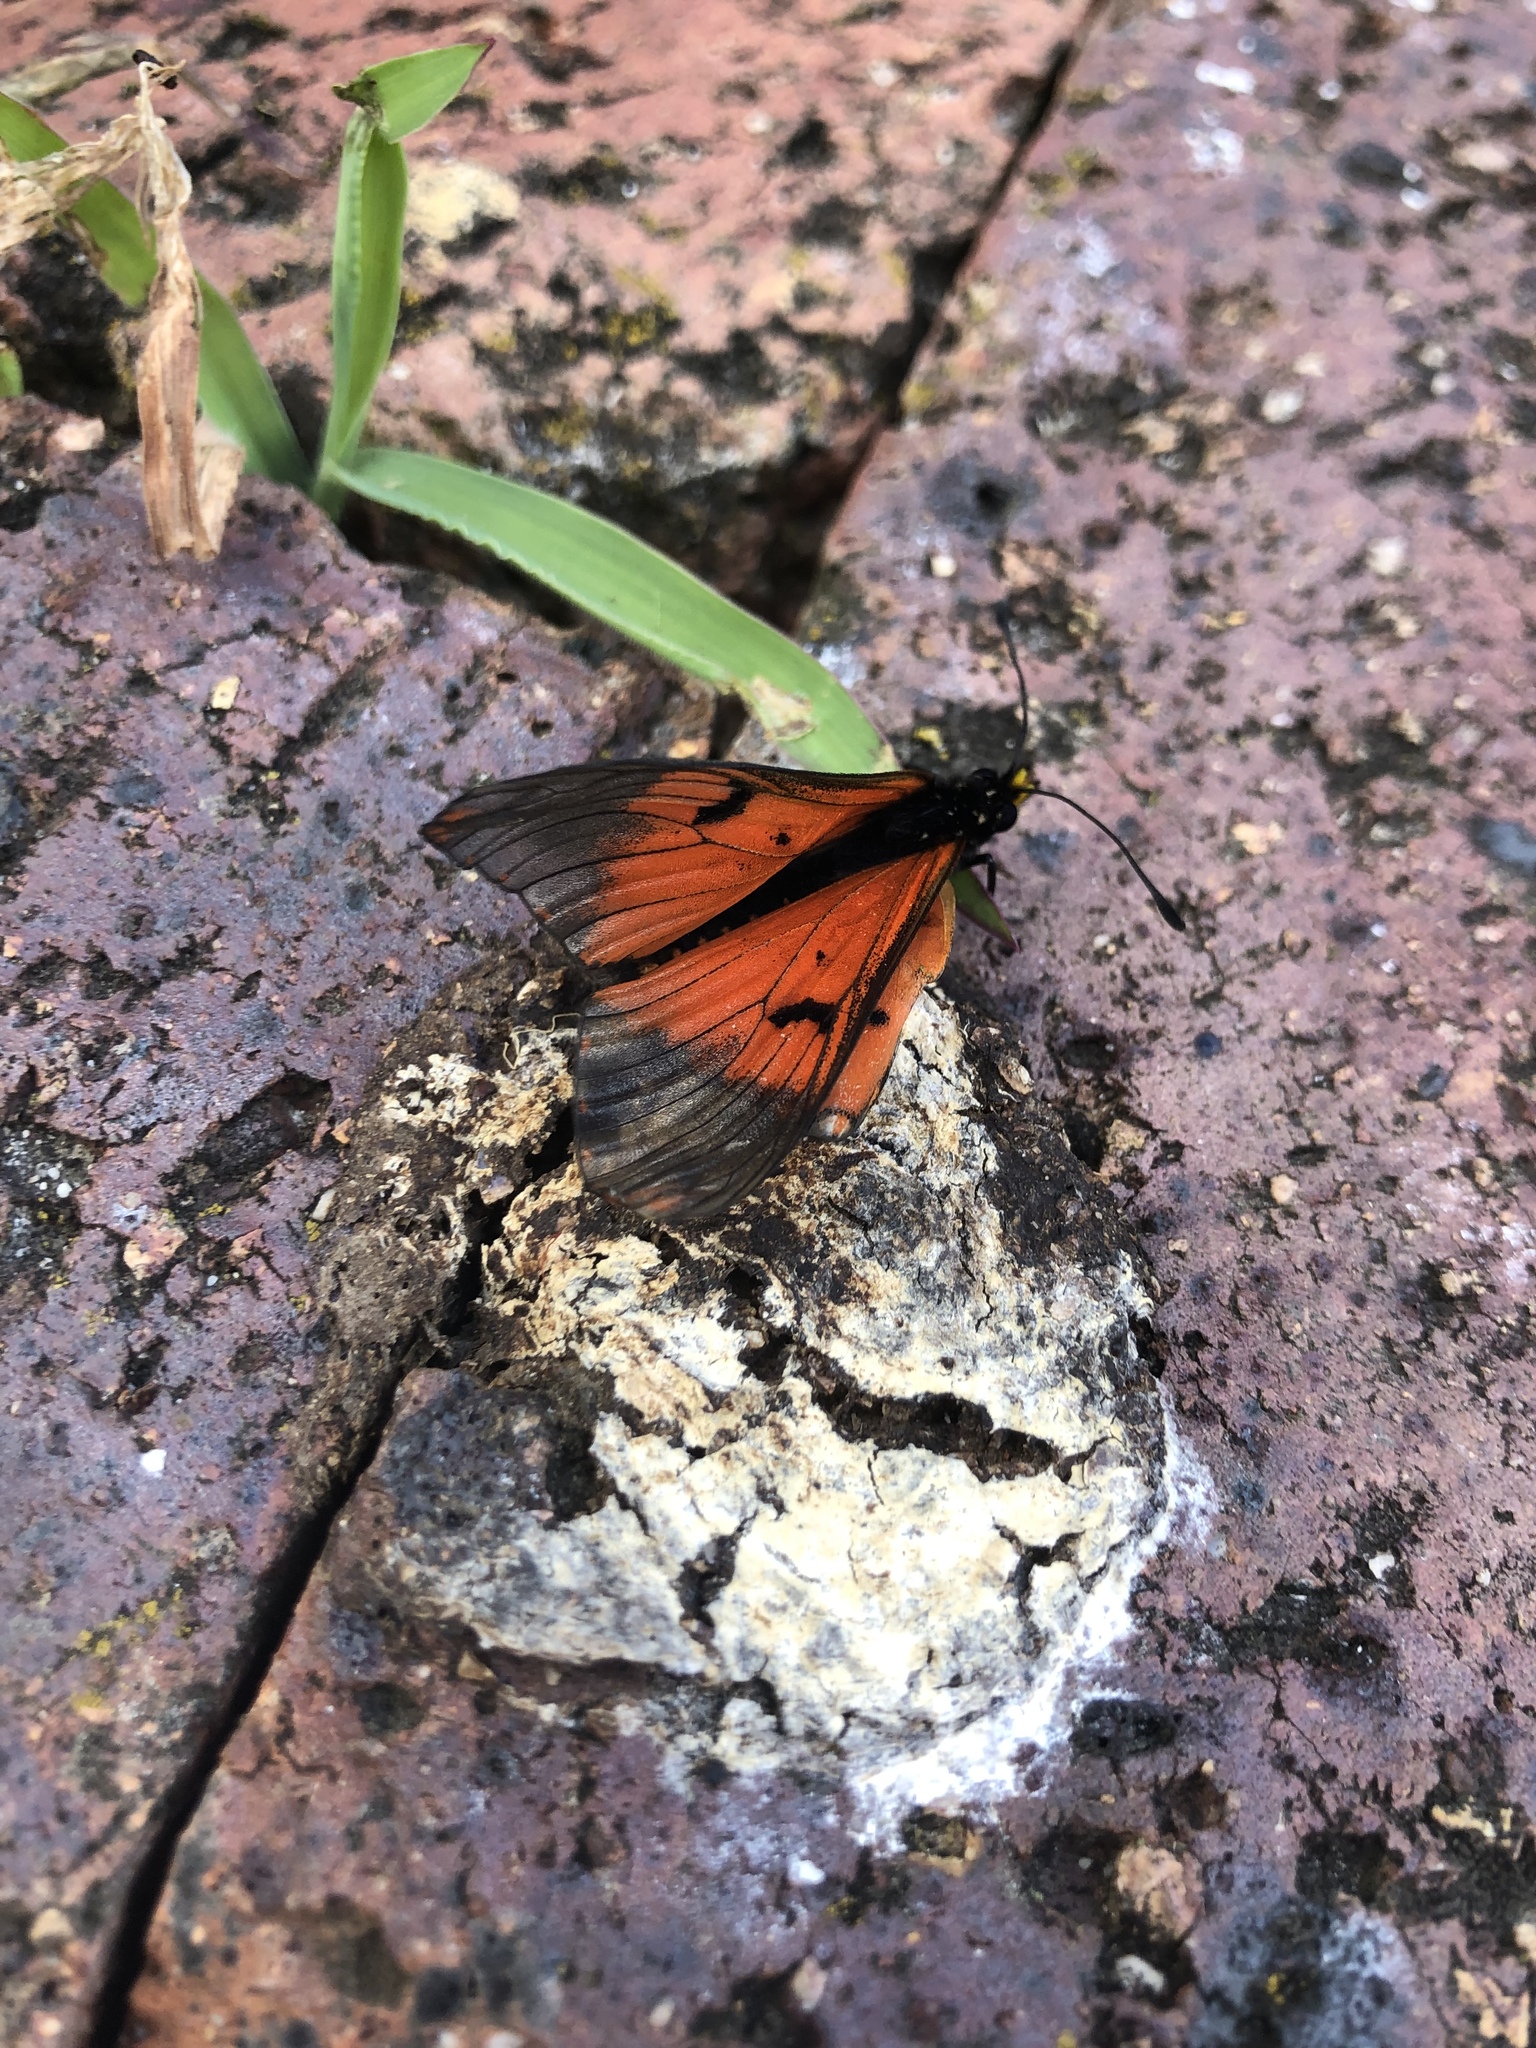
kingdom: Animalia
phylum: Arthropoda
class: Insecta
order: Lepidoptera
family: Nymphalidae
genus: Acraea
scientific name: Acraea horta
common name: Garden acraea
